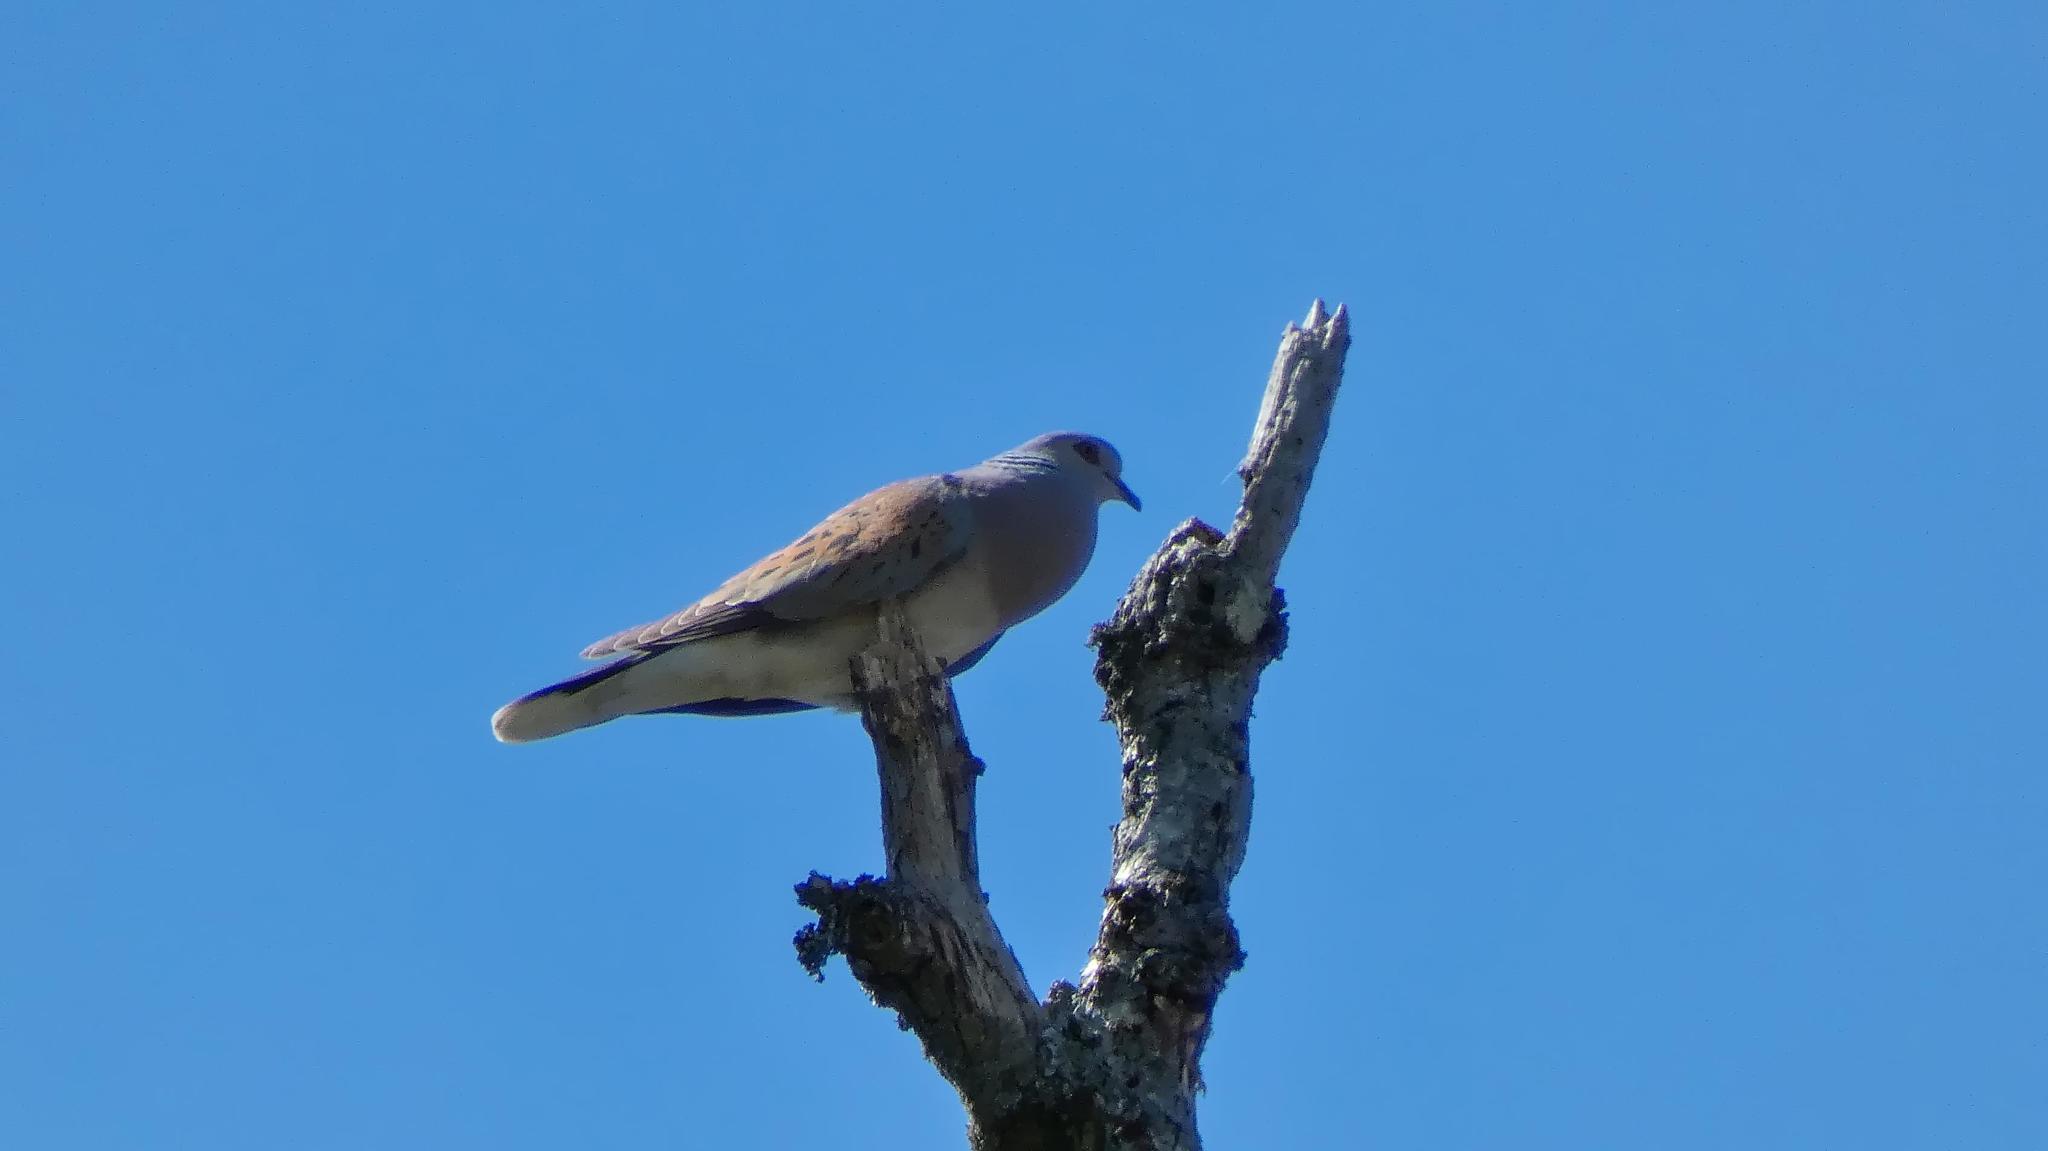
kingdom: Animalia
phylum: Chordata
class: Aves
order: Columbiformes
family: Columbidae
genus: Streptopelia
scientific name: Streptopelia turtur
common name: European turtle dove
